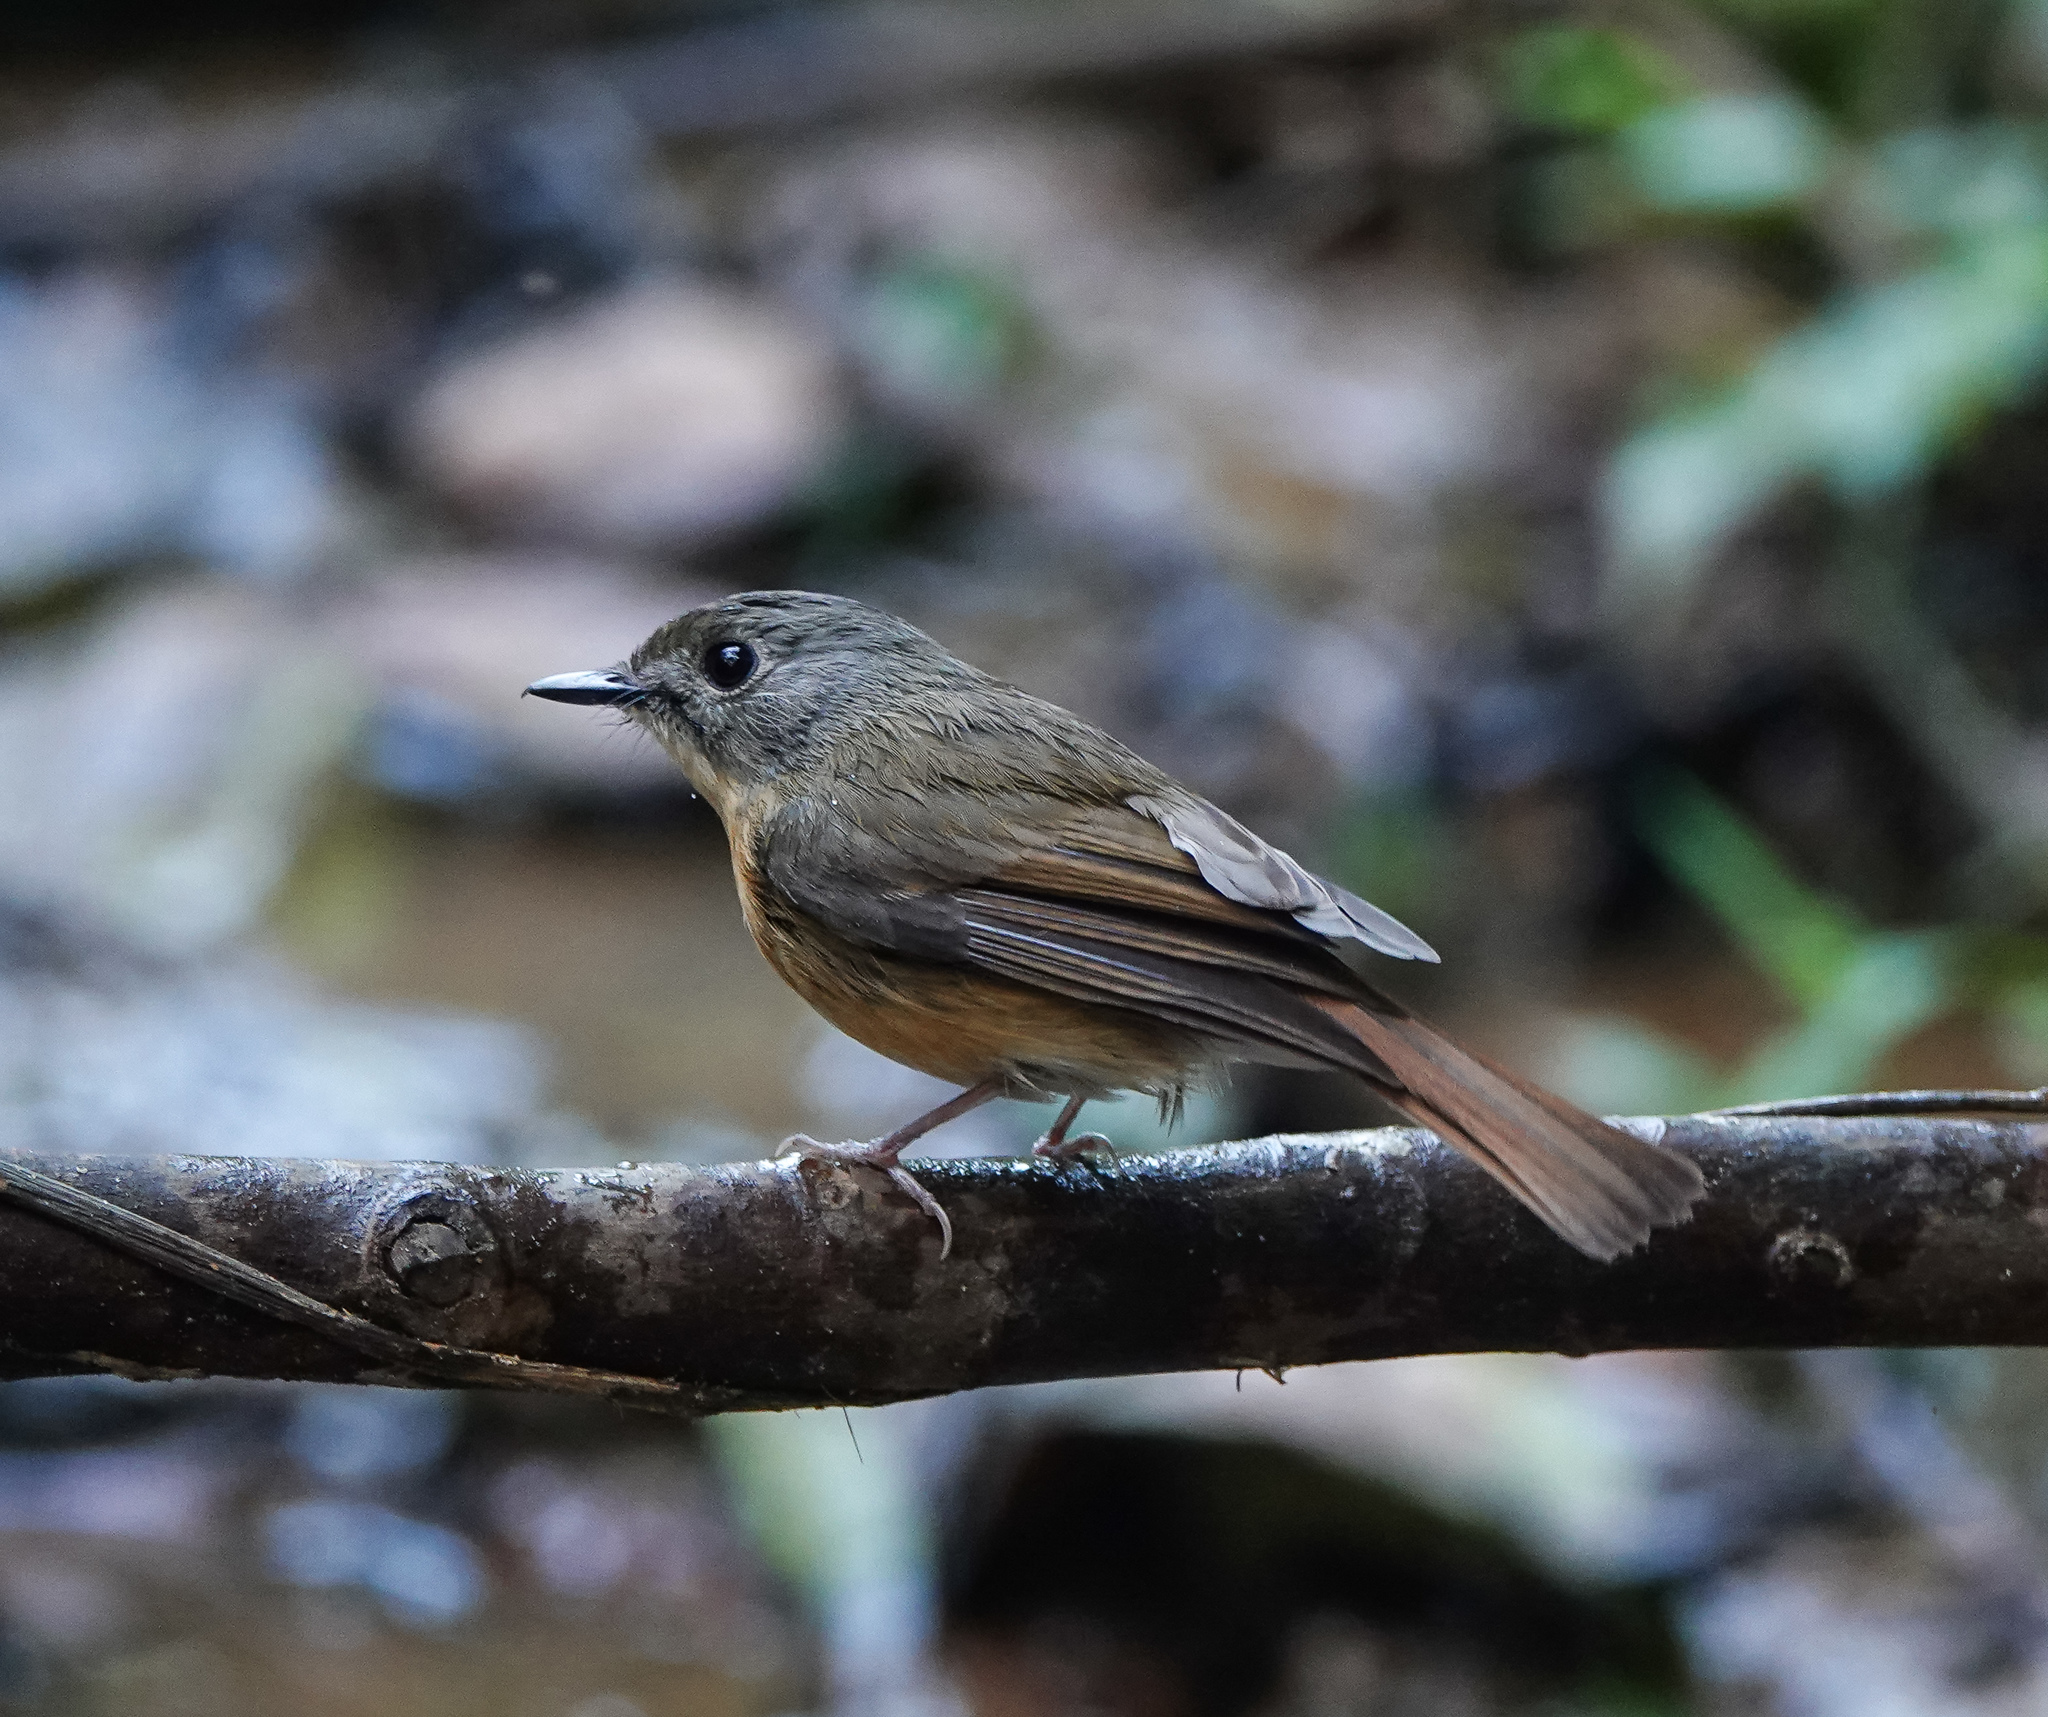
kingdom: Animalia
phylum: Chordata
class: Aves
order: Passeriformes
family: Muscicapidae
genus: Cyornis
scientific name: Cyornis poliogenys
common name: Pale-chinned blue flycatcher
